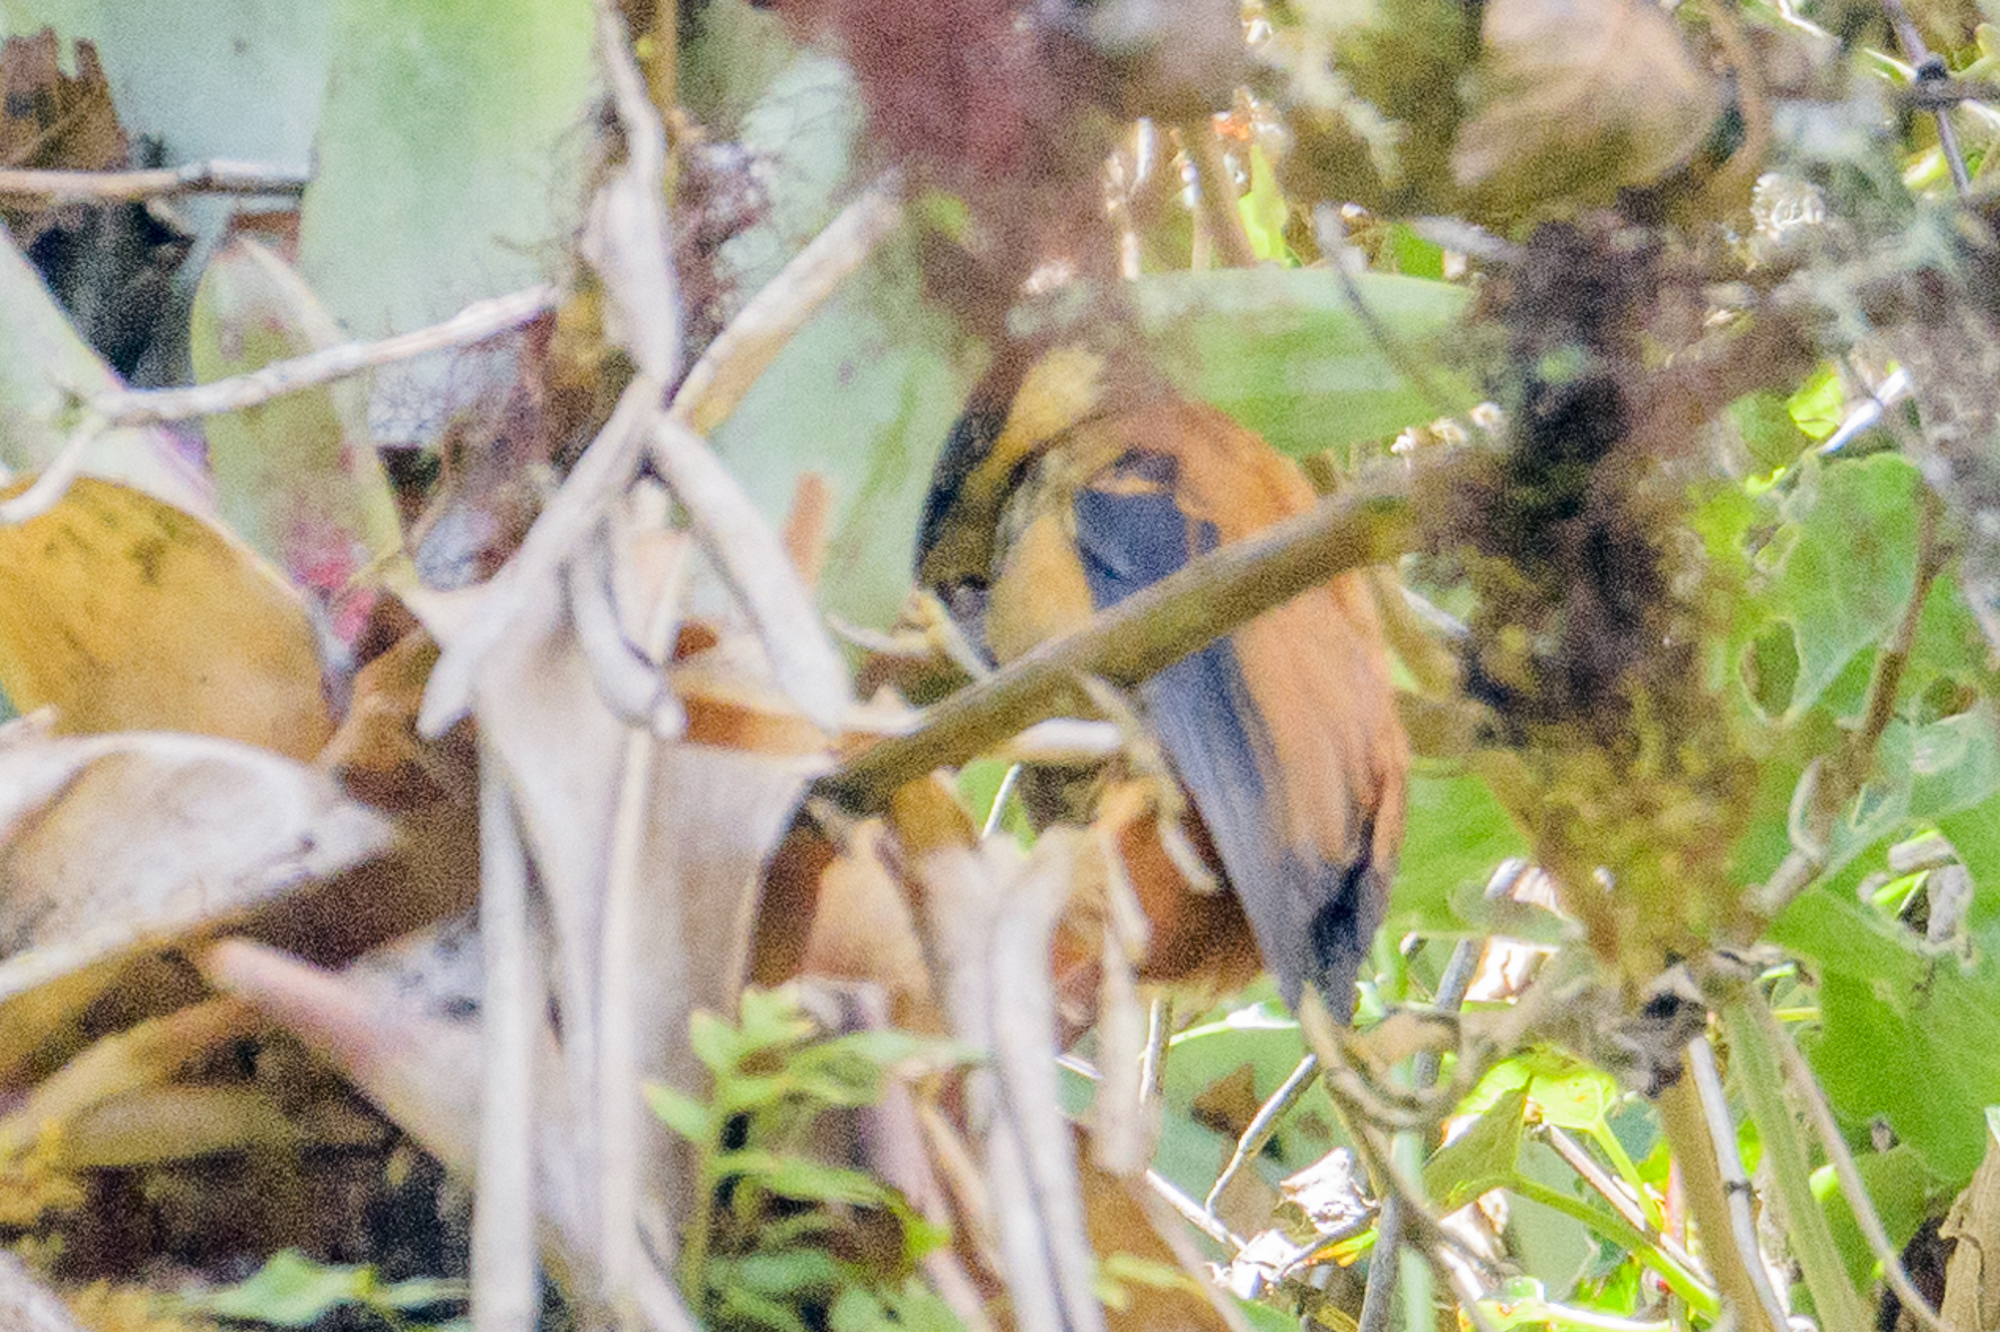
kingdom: Animalia
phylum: Chordata
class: Aves
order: Passeriformes
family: Furnariidae
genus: Pseudocolaptes
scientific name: Pseudocolaptes lawrencii
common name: Buffy tuftedcheek
